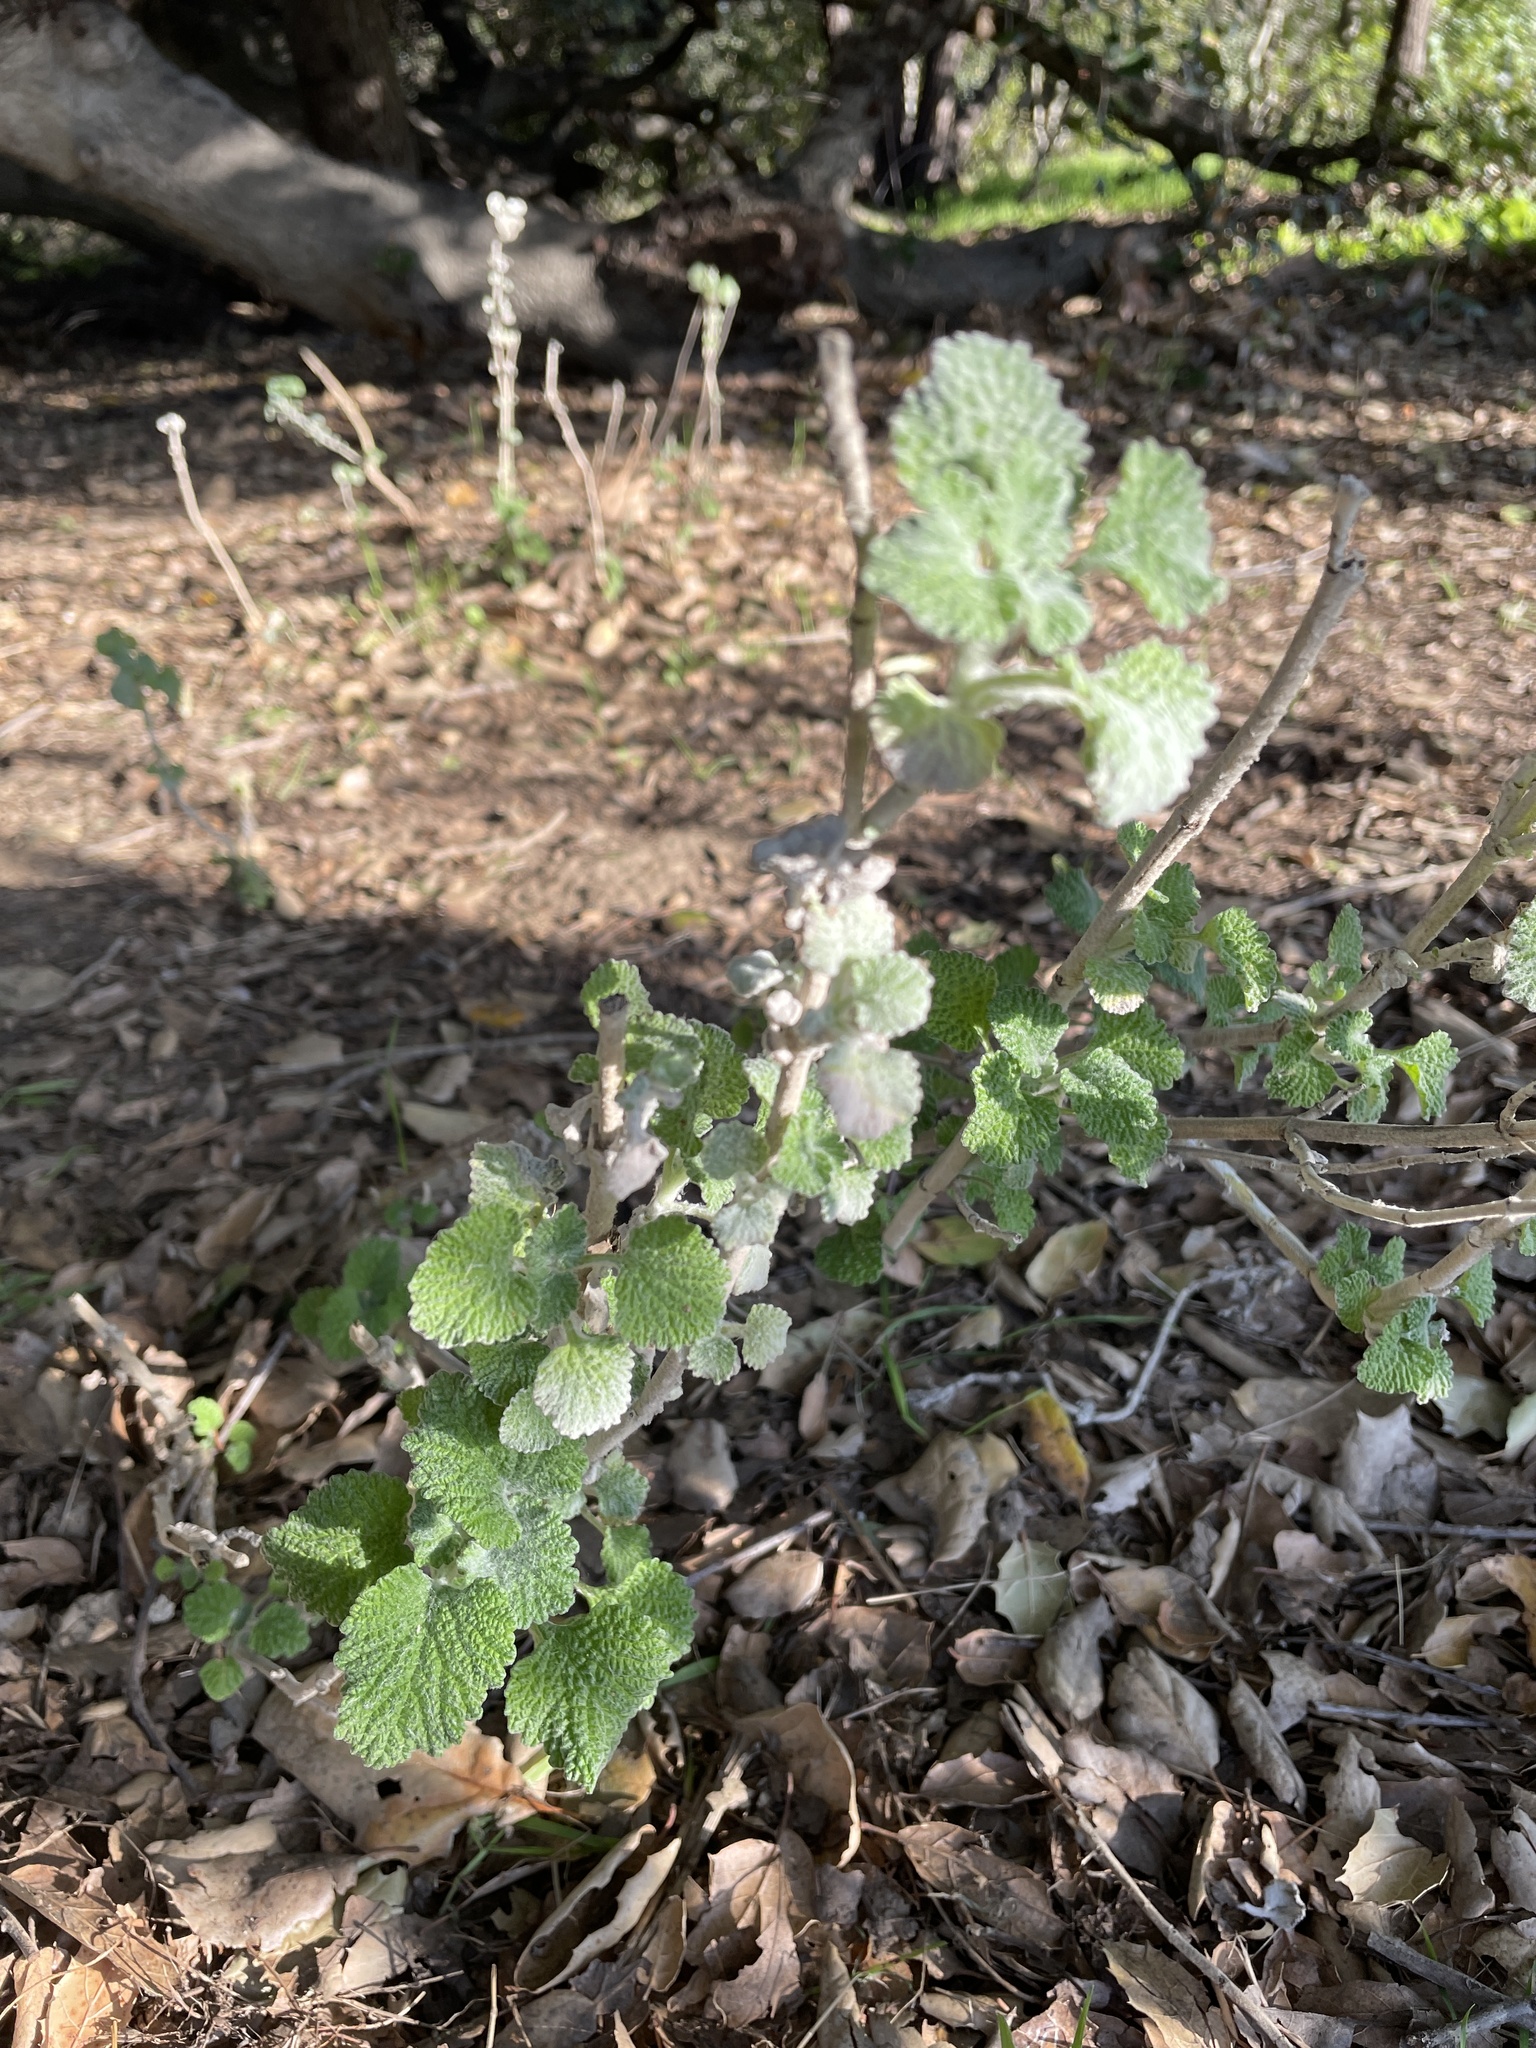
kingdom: Plantae
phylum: Tracheophyta
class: Magnoliopsida
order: Lamiales
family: Lamiaceae
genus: Marrubium
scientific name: Marrubium vulgare
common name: Horehound
